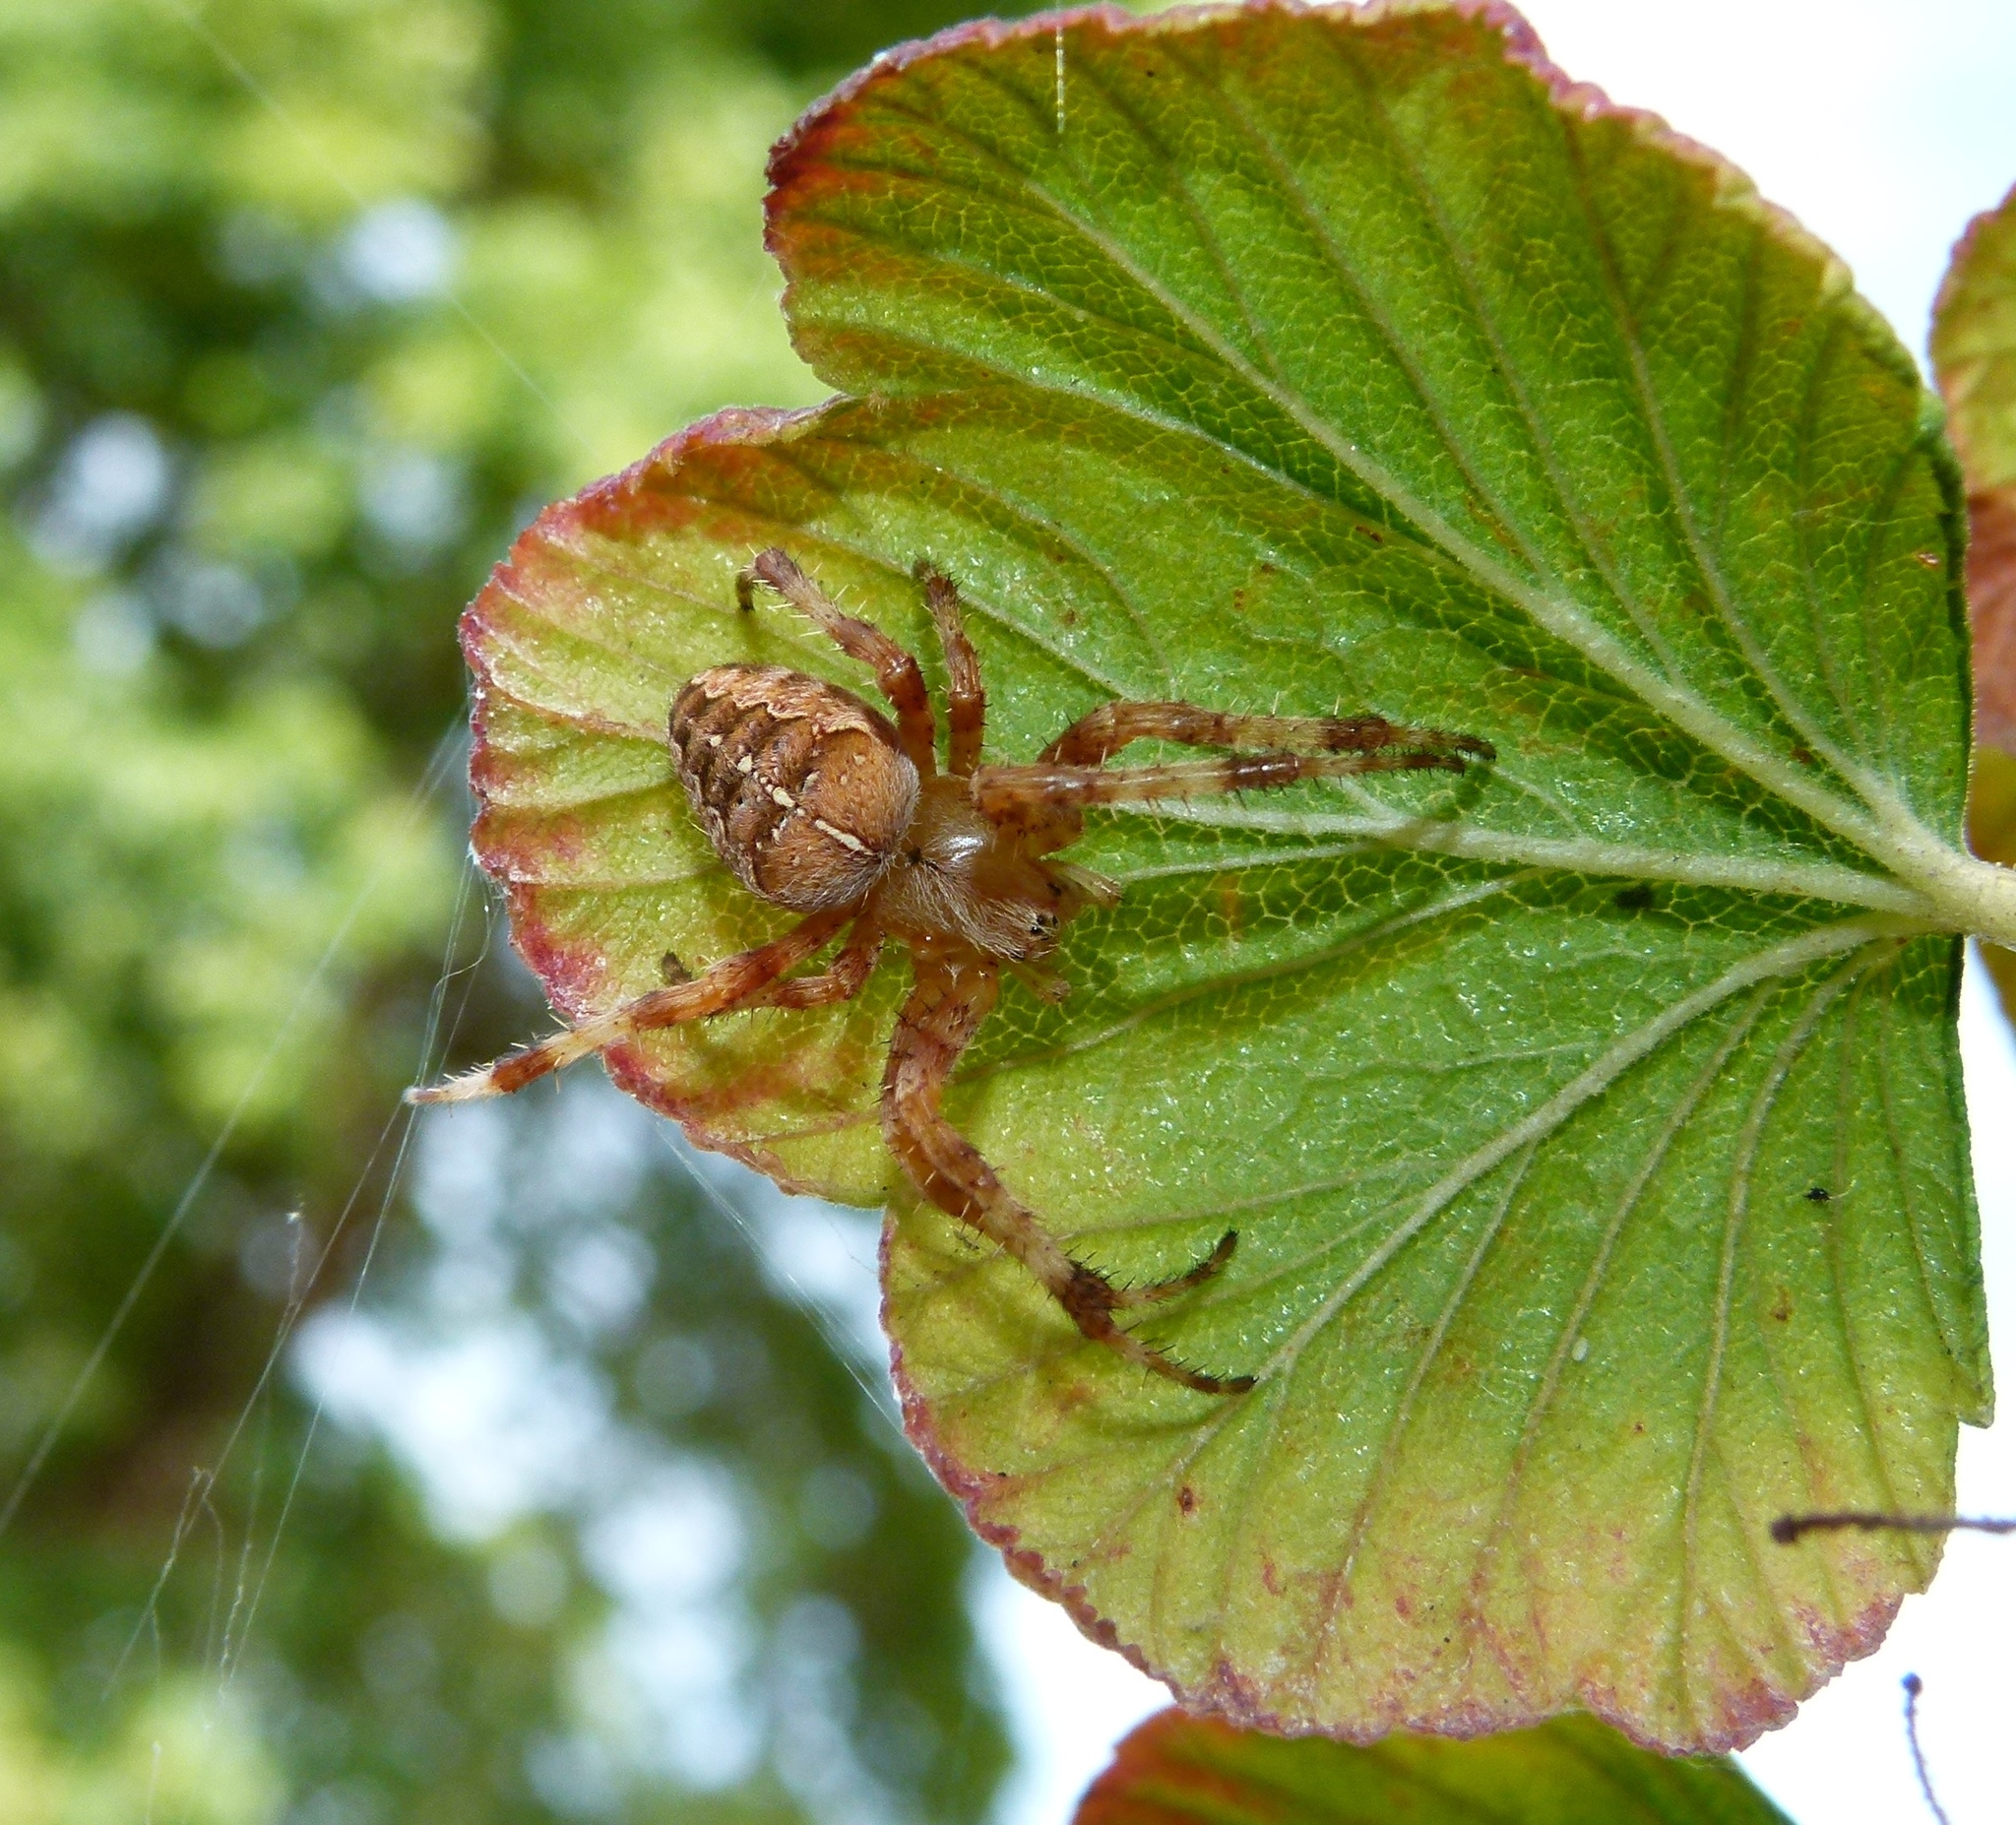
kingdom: Animalia
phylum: Arthropoda
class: Arachnida
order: Araneae
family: Araneidae
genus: Araneus
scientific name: Araneus diadematus
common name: Cross orbweaver
